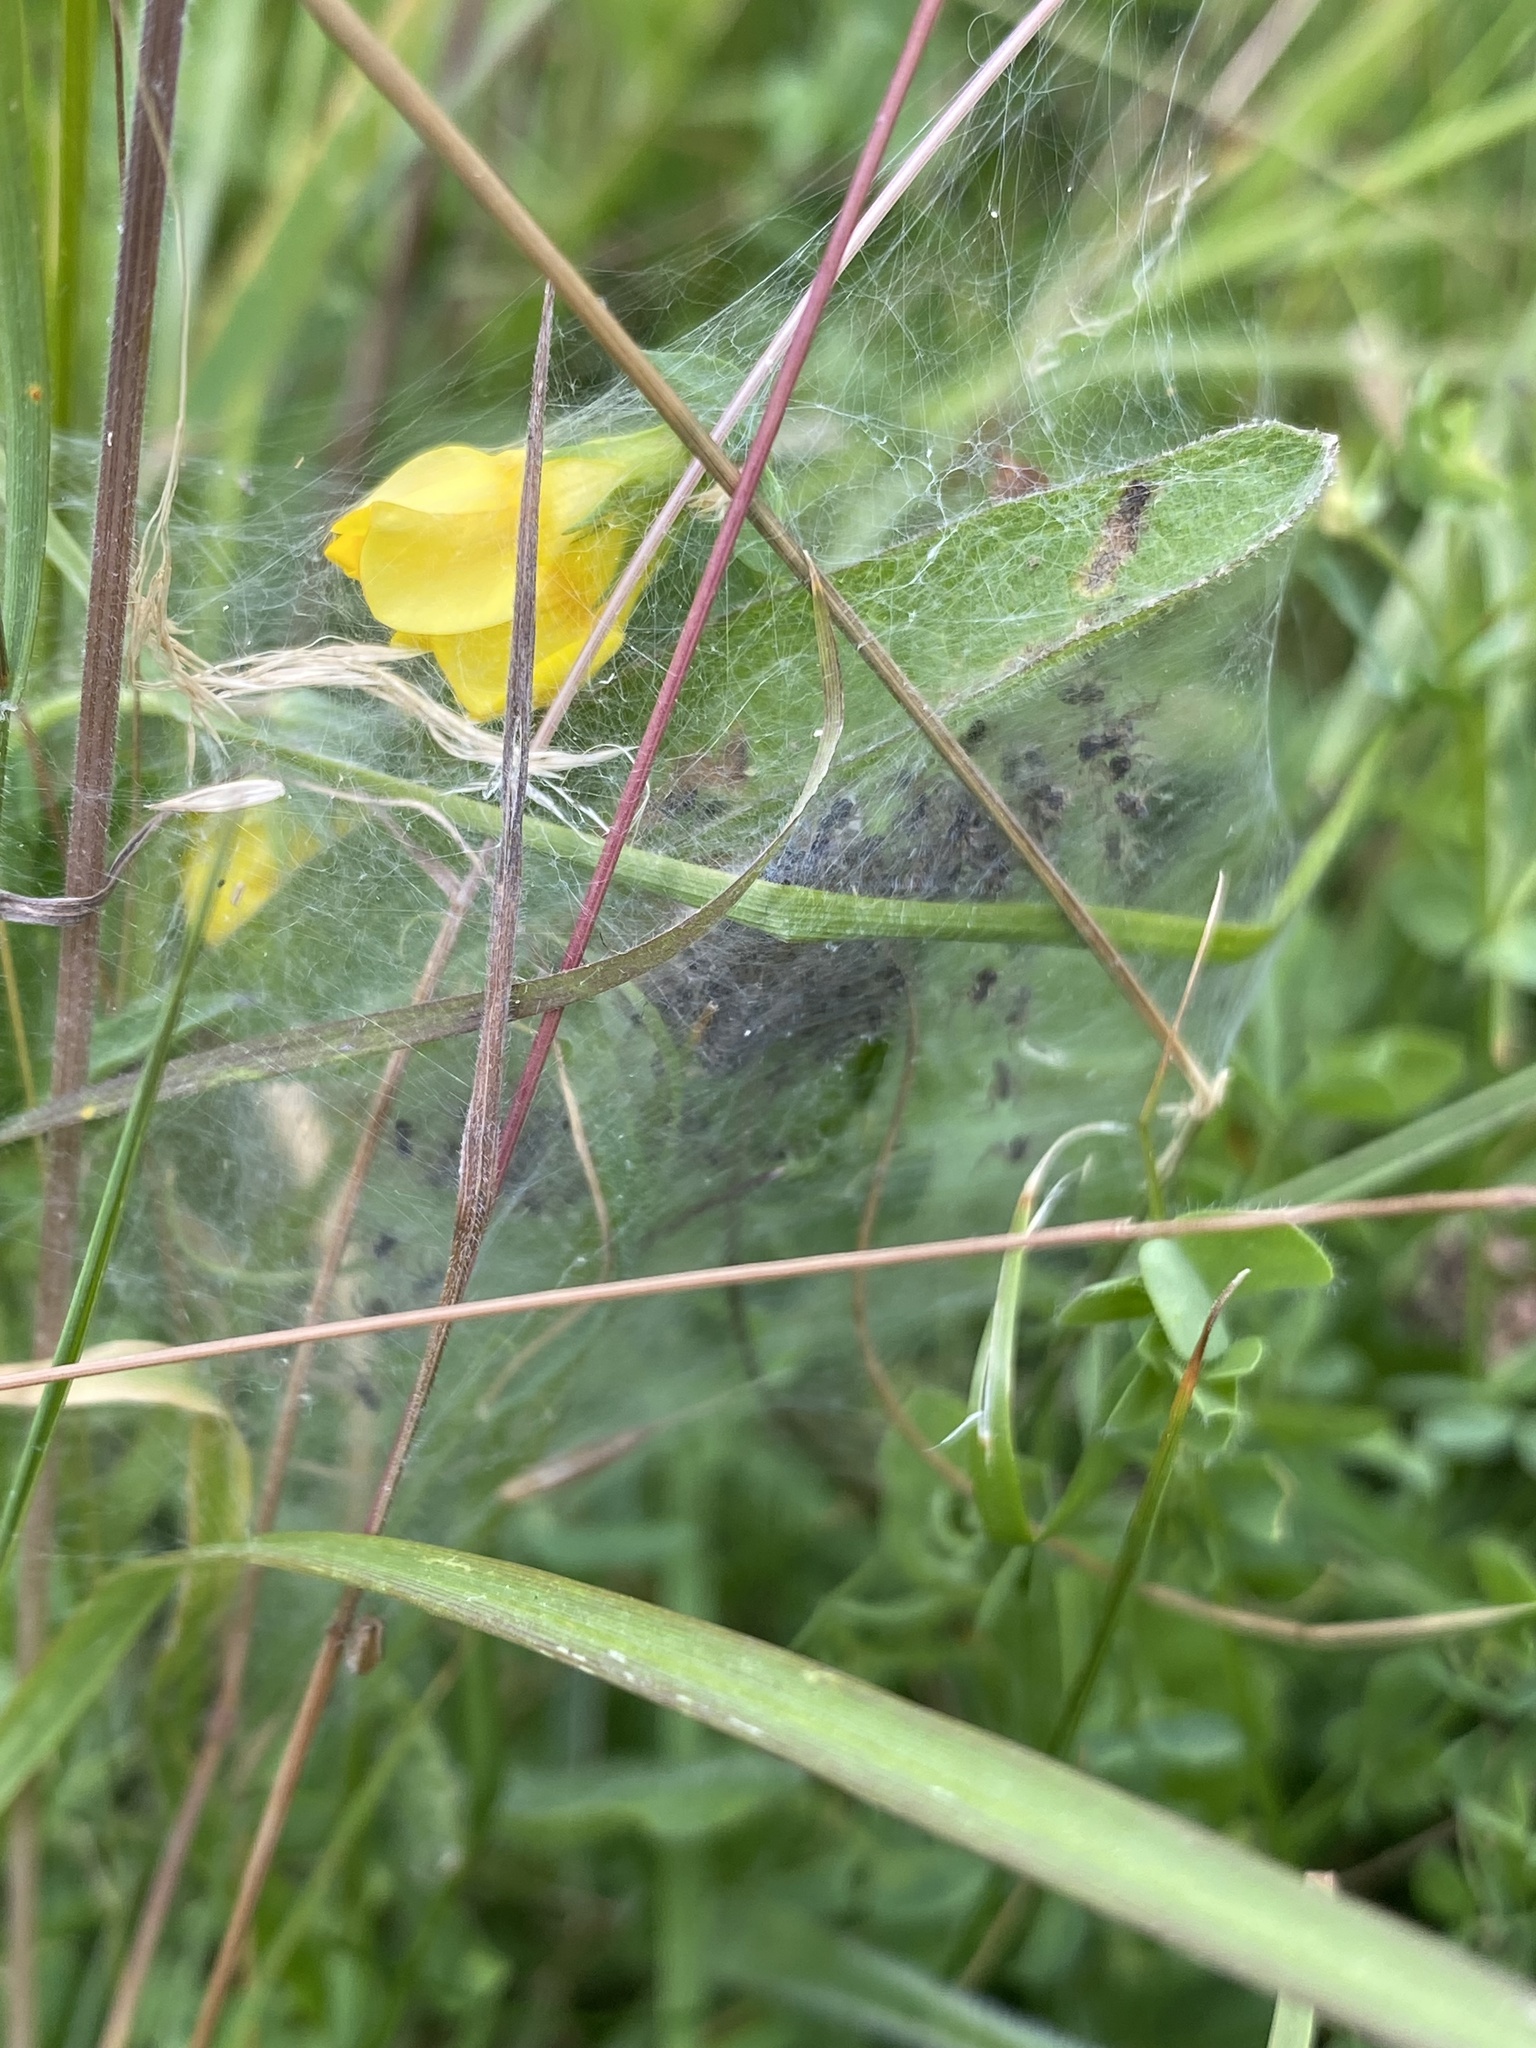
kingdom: Animalia
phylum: Arthropoda
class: Arachnida
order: Araneae
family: Pisauridae
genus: Pisaura
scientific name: Pisaura mirabilis
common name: Tent spider
